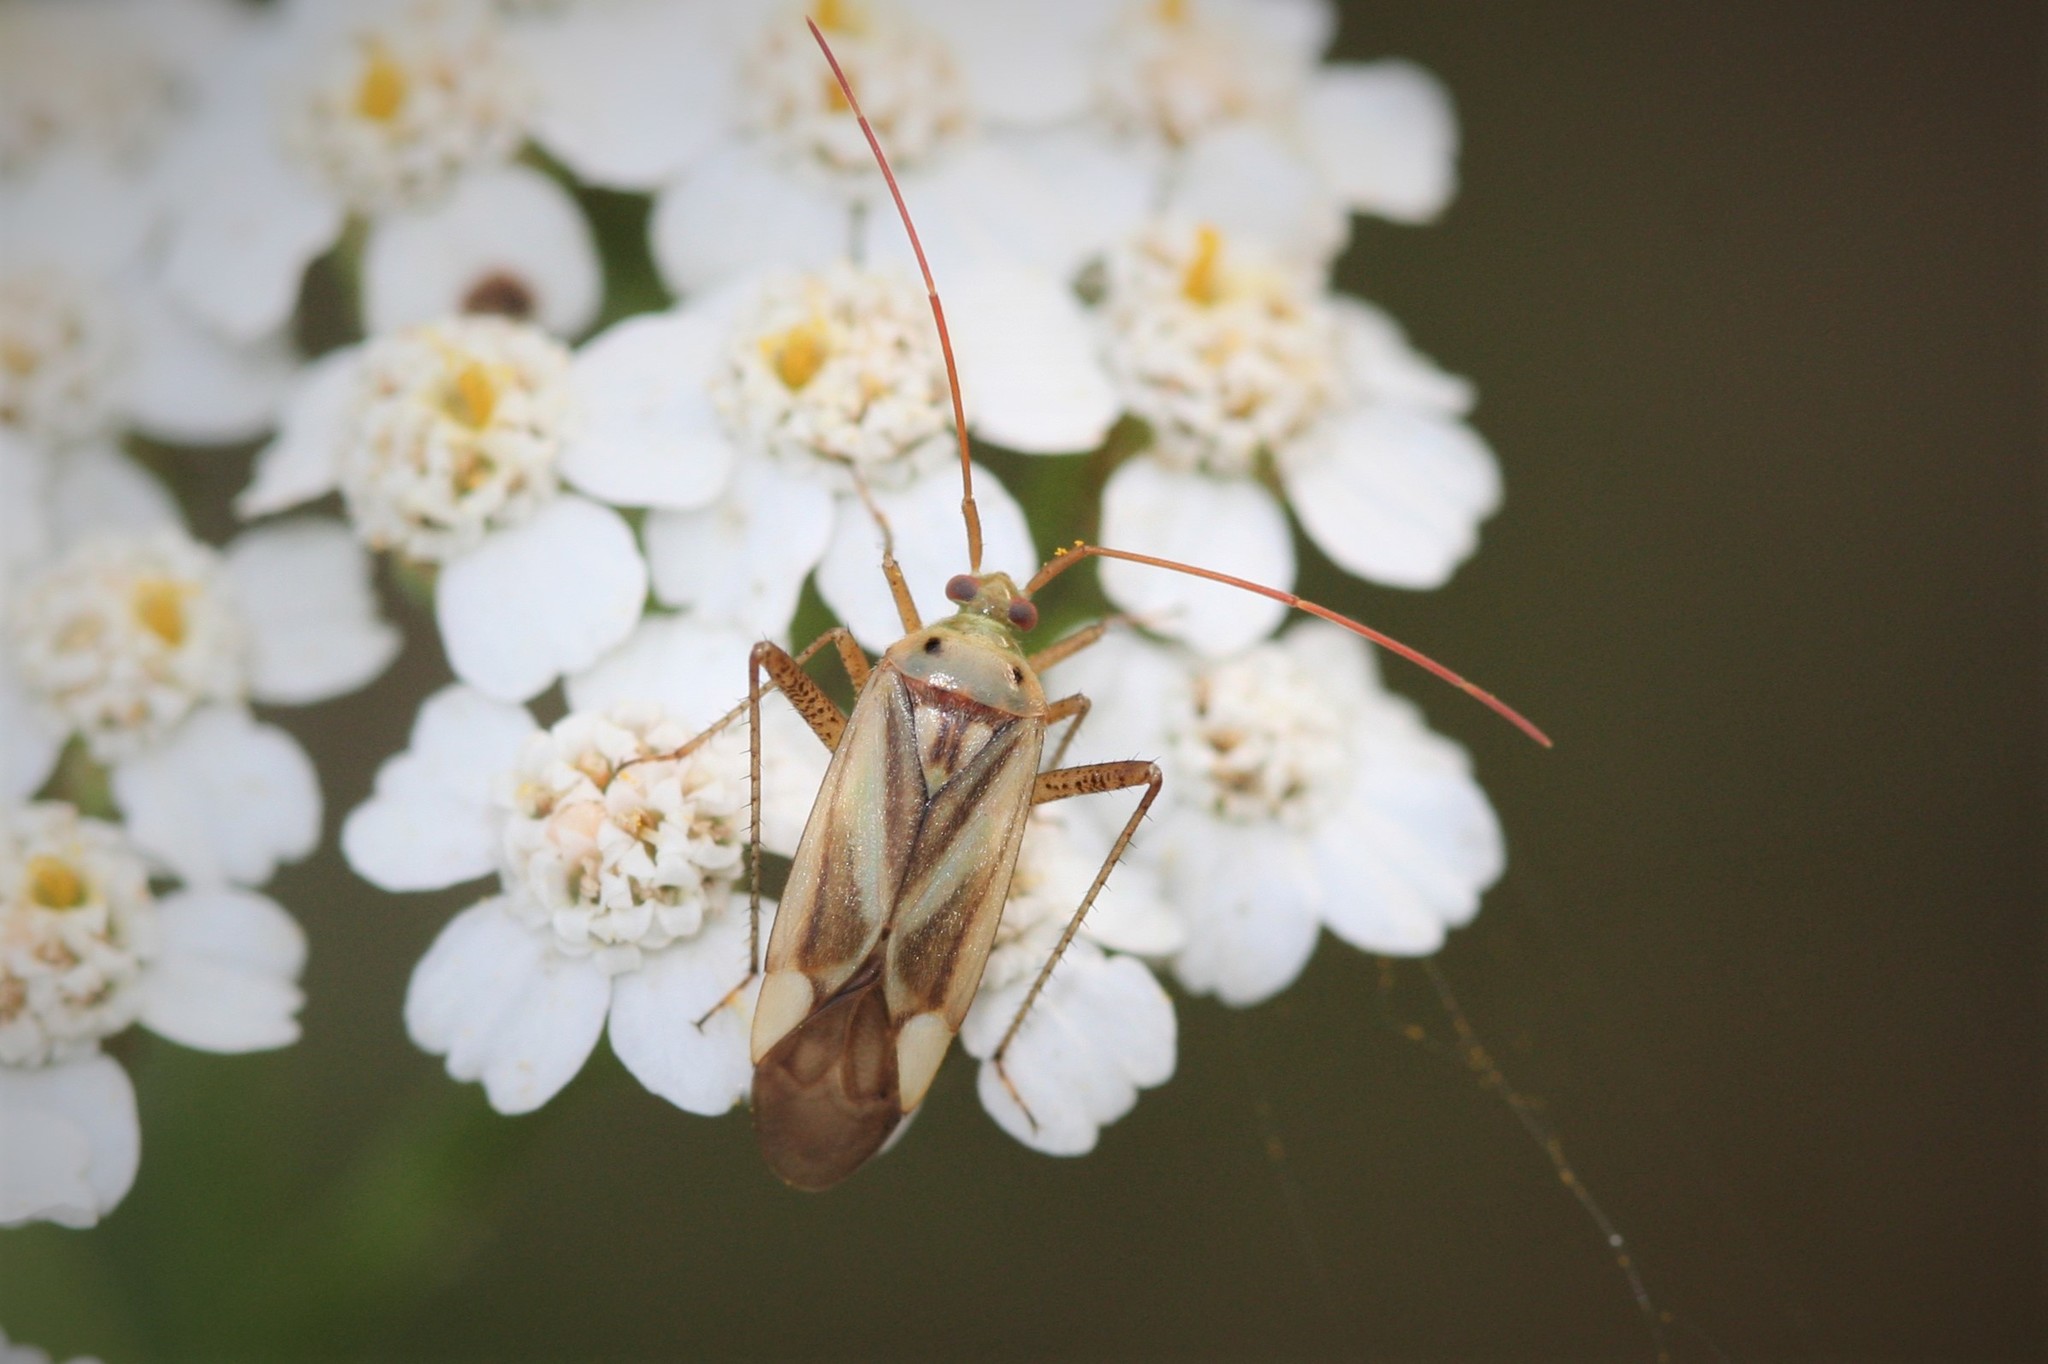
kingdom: Animalia
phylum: Arthropoda
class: Insecta
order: Hemiptera
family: Miridae
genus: Adelphocoris
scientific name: Adelphocoris lineolatus
